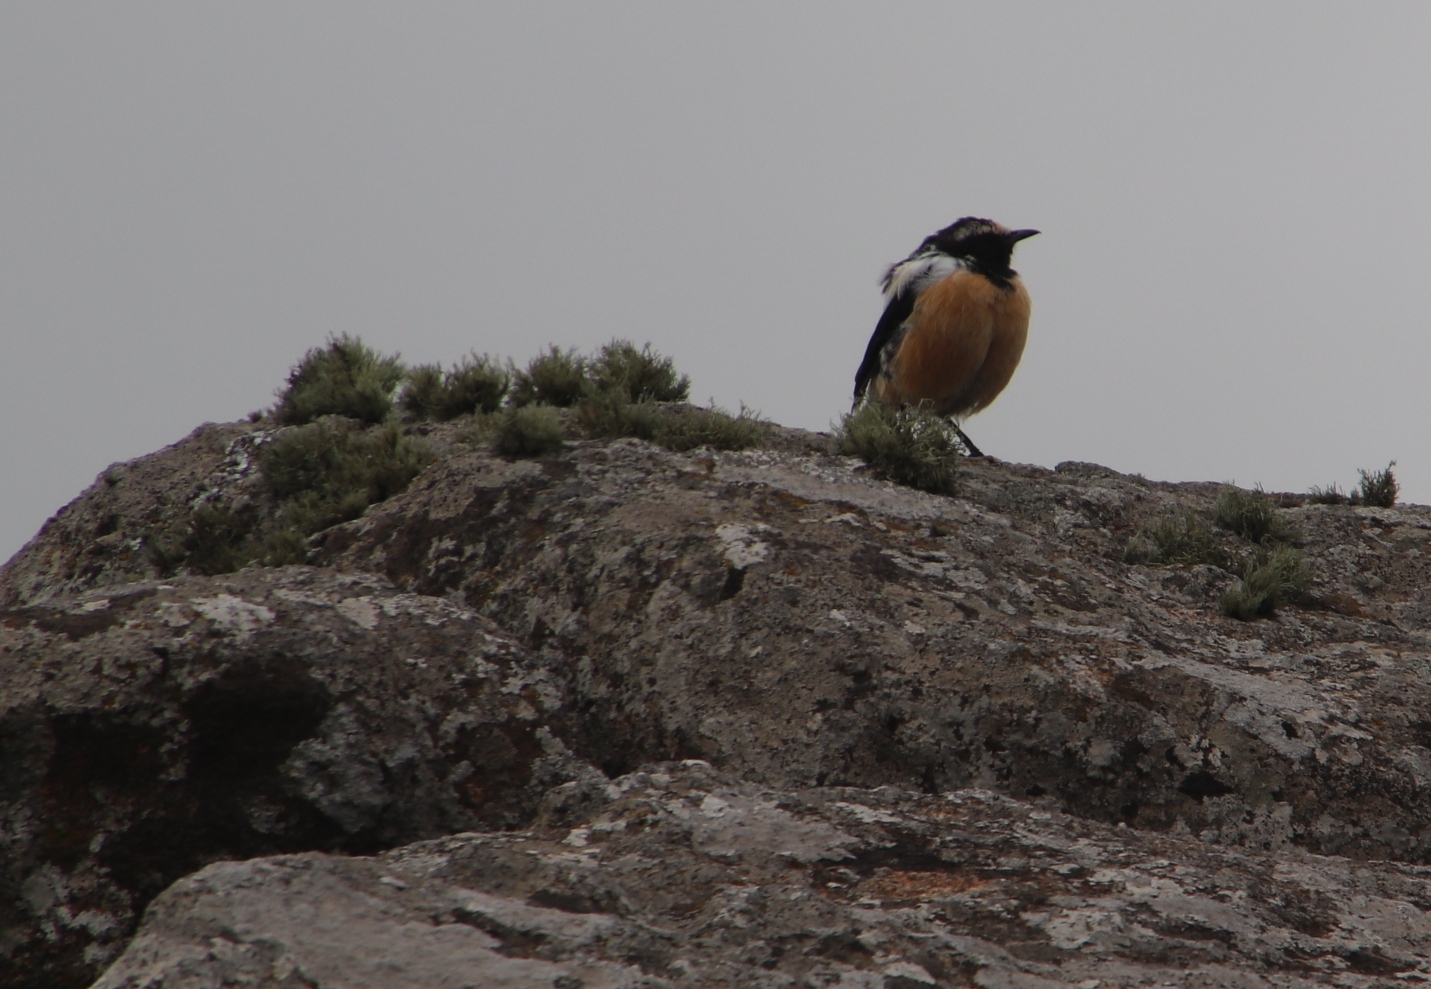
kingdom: Animalia
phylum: Chordata
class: Aves
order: Passeriformes
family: Muscicapidae
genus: Campicoloides
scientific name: Campicoloides bifasciatus
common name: Buff-streaked chat
